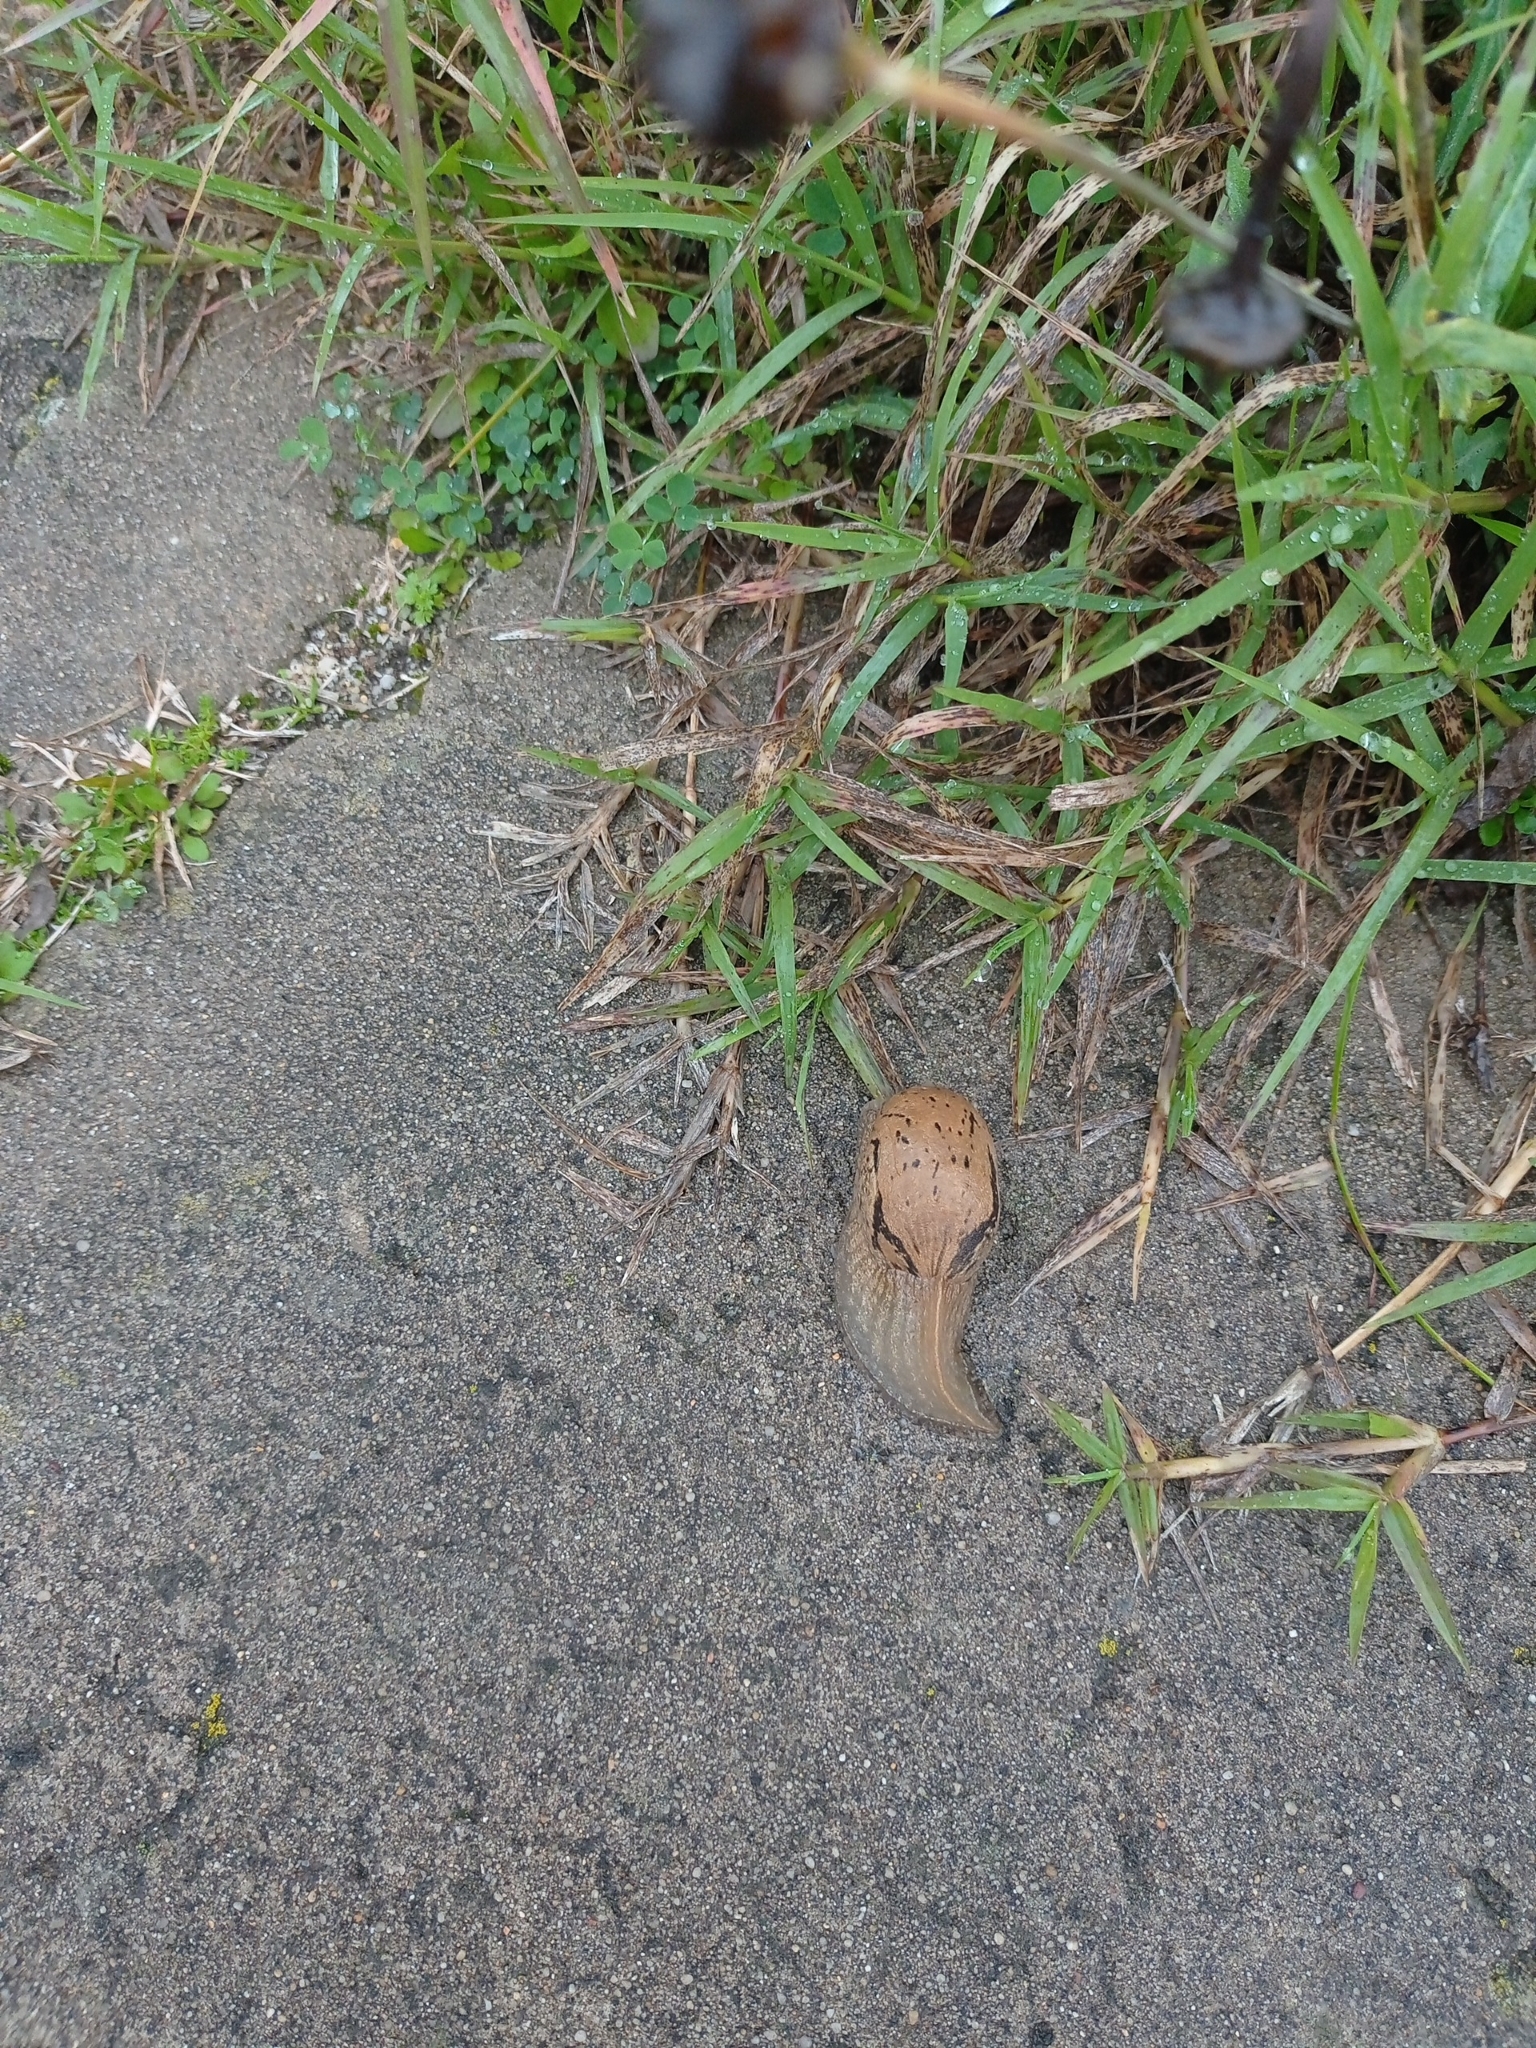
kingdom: Animalia
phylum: Mollusca
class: Gastropoda
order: Stylommatophora
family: Parmacellidae
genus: Drusia
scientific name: Drusia valenciennii
